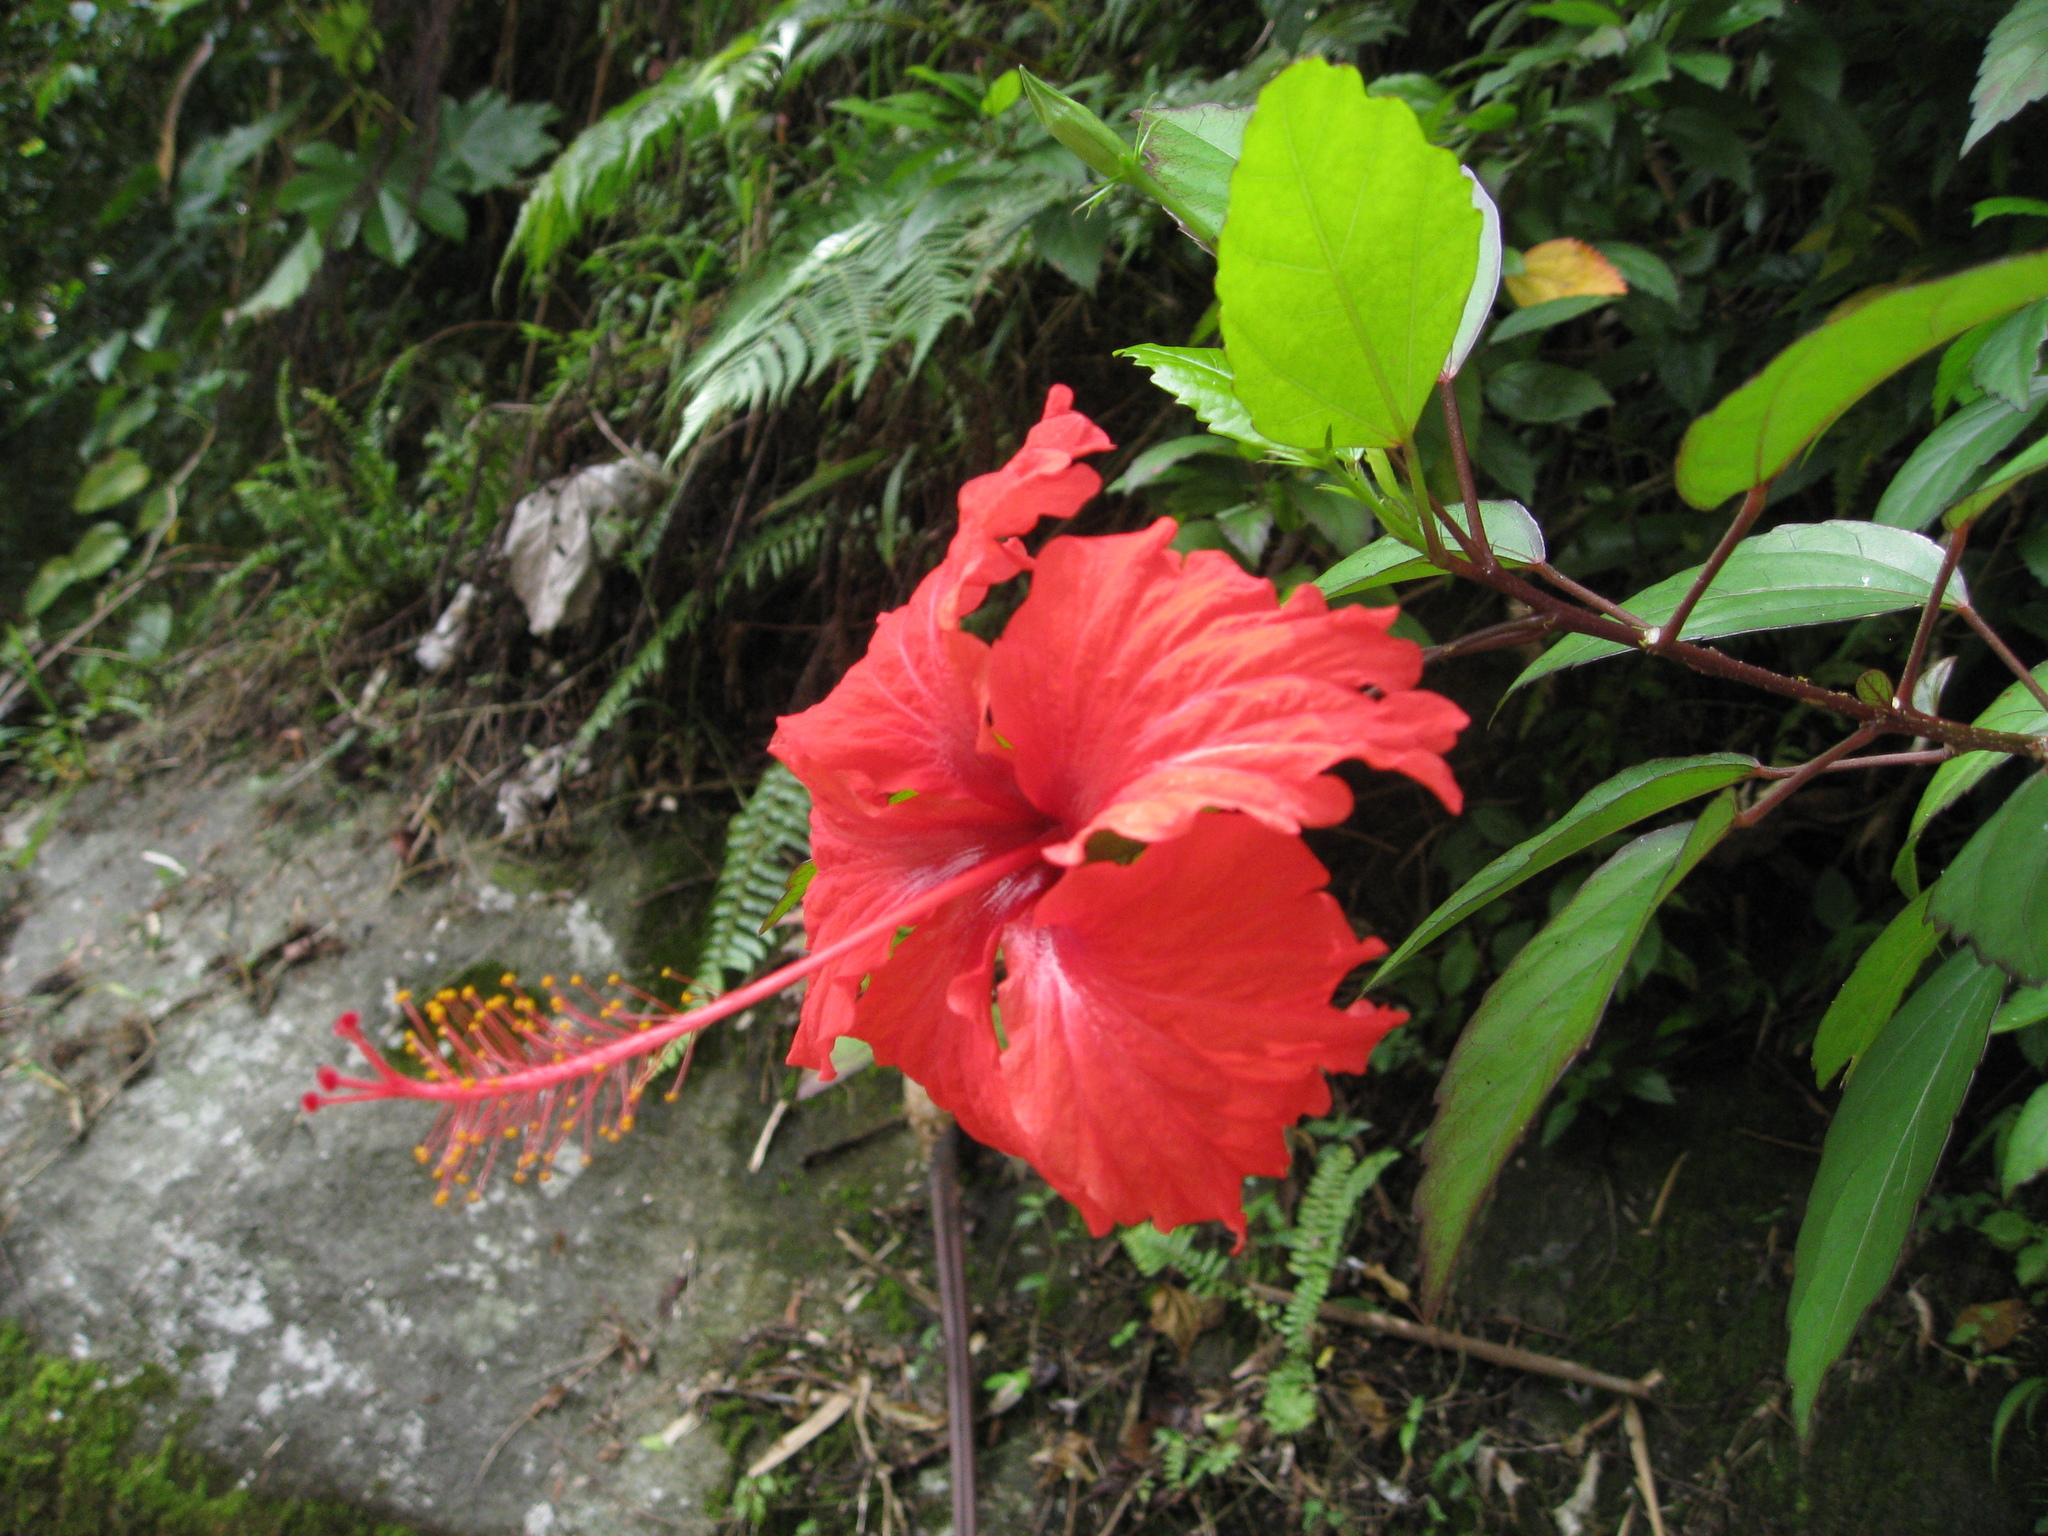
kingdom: Plantae
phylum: Tracheophyta
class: Magnoliopsida
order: Malvales
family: Malvaceae
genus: Hibiscus
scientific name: Hibiscus archeri
